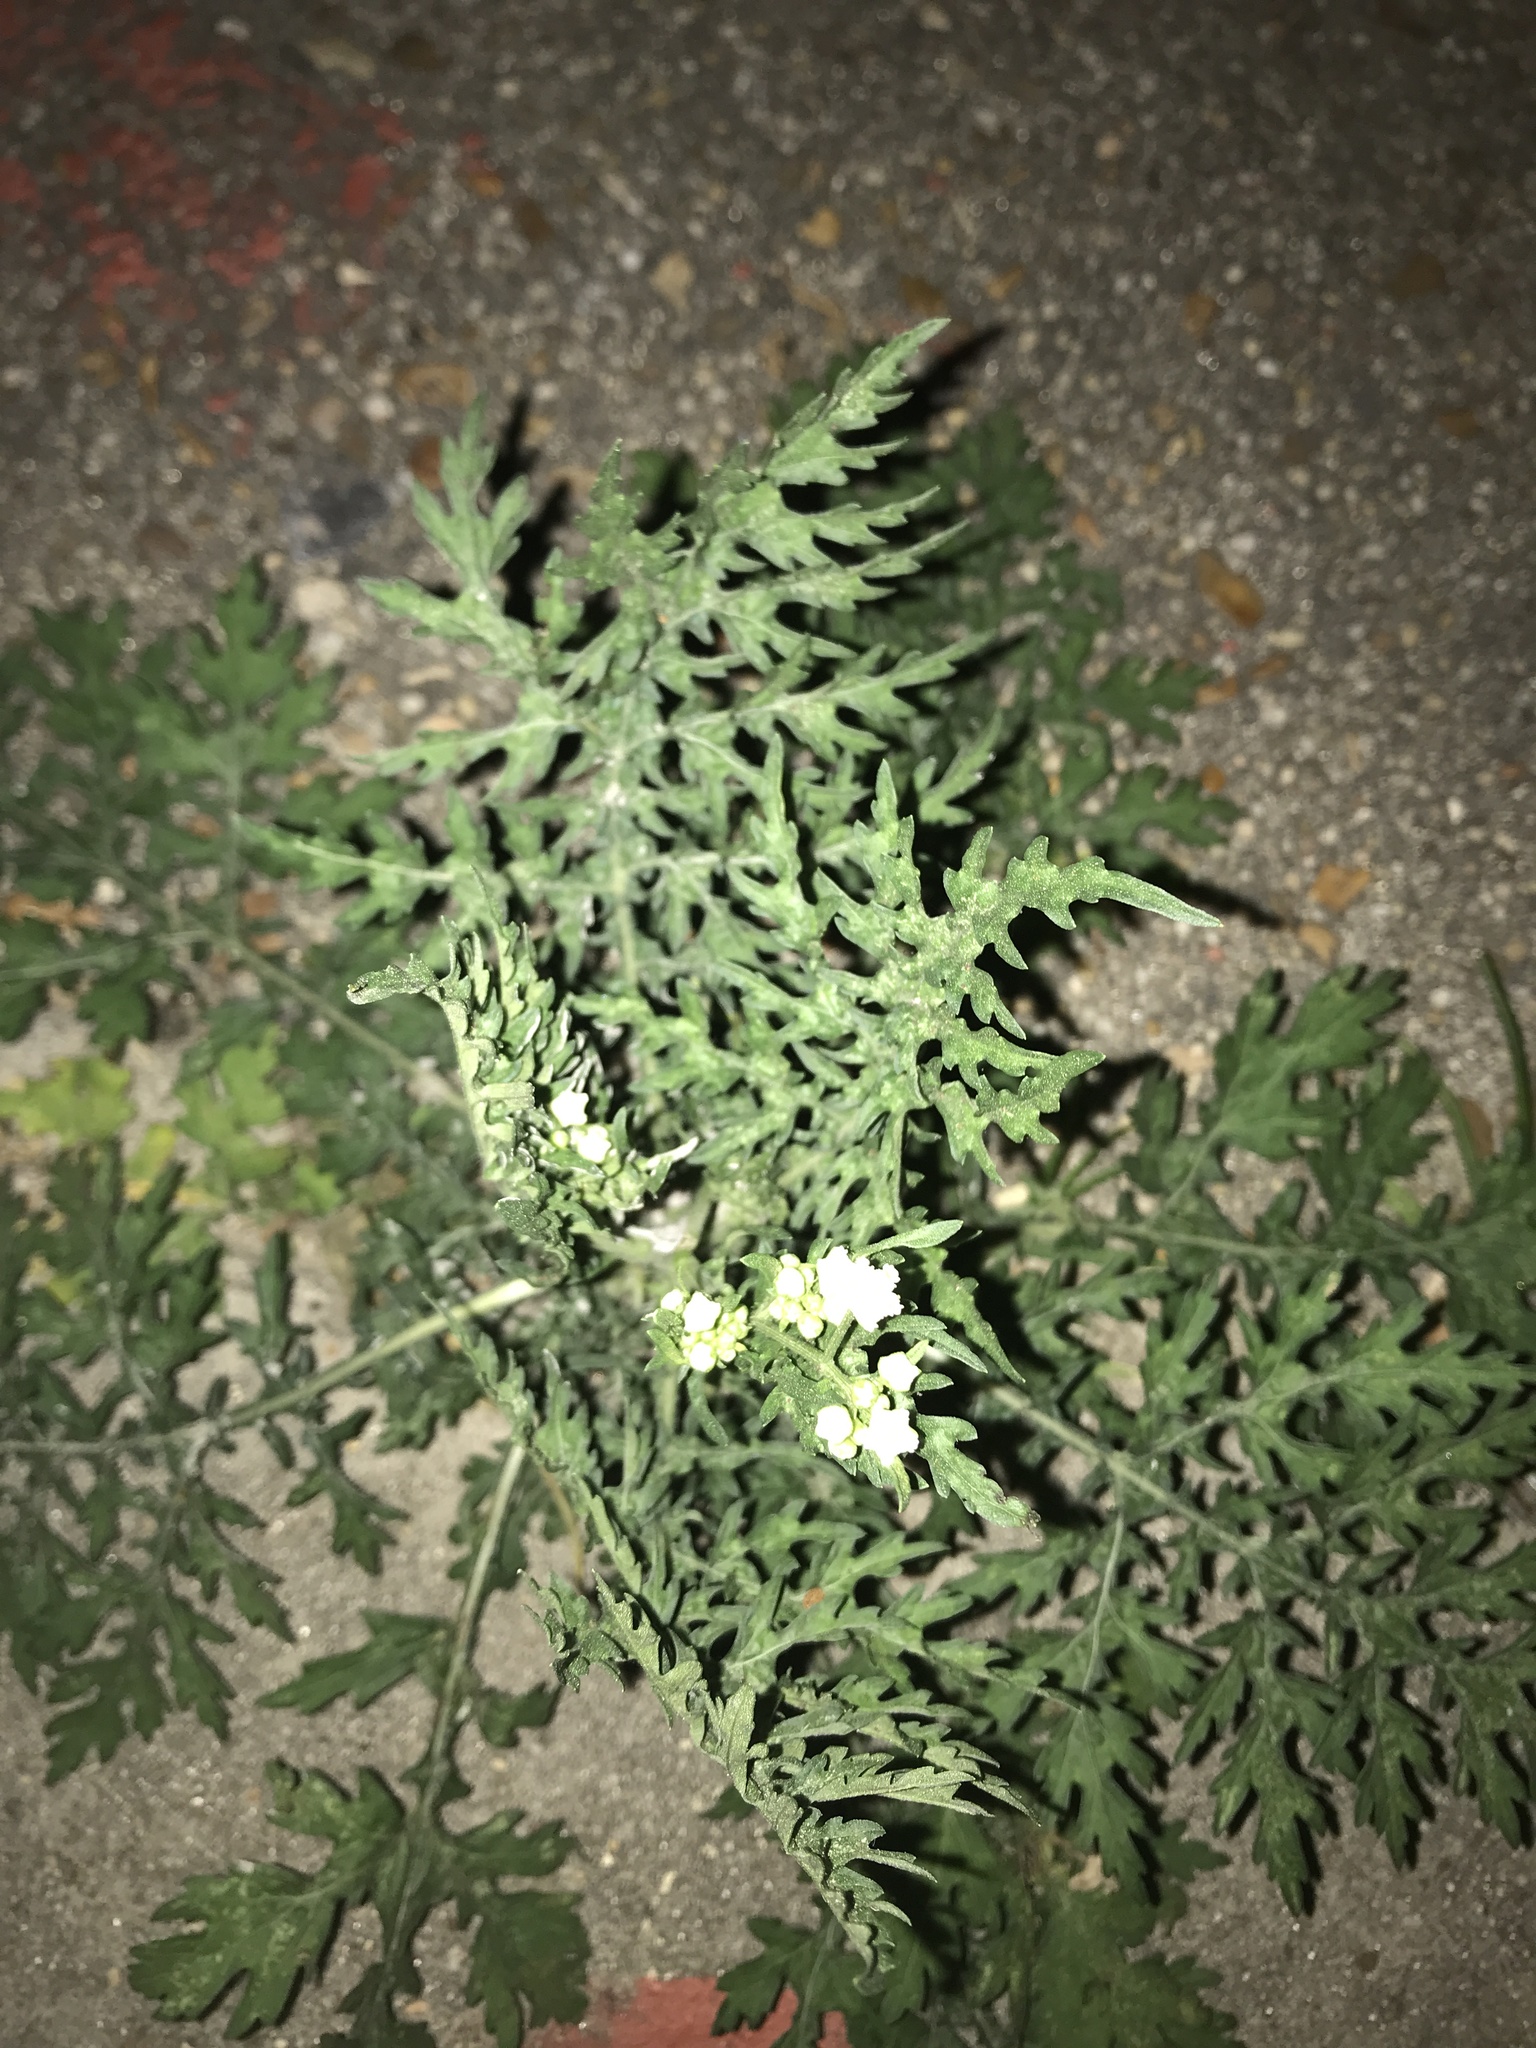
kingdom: Plantae
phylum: Tracheophyta
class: Magnoliopsida
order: Asterales
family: Asteraceae
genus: Parthenium
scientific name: Parthenium hysterophorus
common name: Santa maria feverfew
